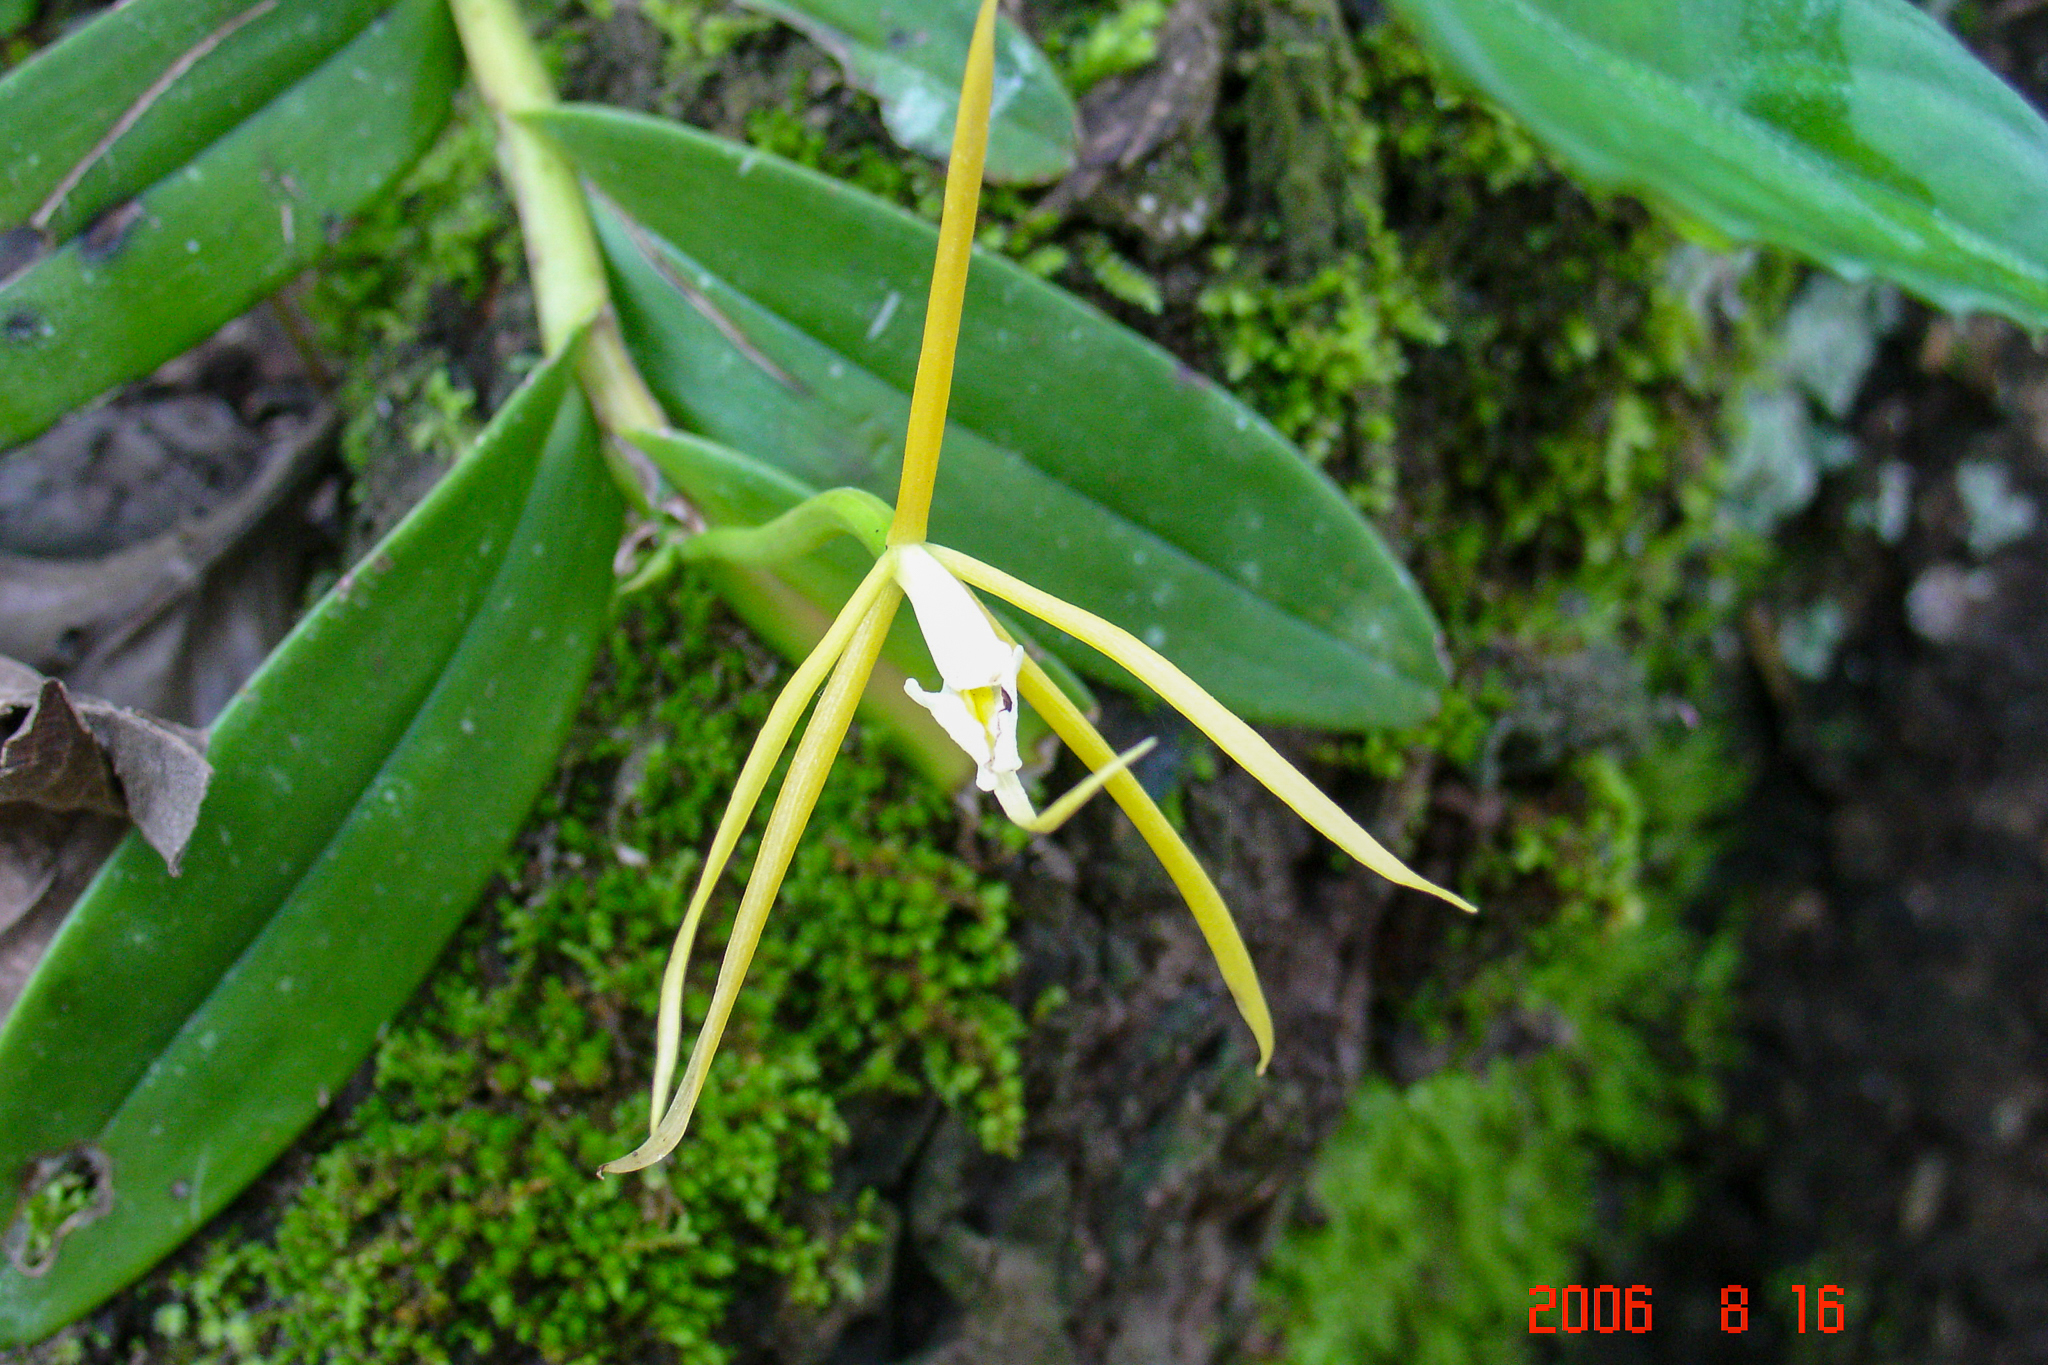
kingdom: Plantae
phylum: Tracheophyta
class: Liliopsida
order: Asparagales
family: Orchidaceae
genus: Epidendrum
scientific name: Epidendrum nocturnum
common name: Night scented orchid
